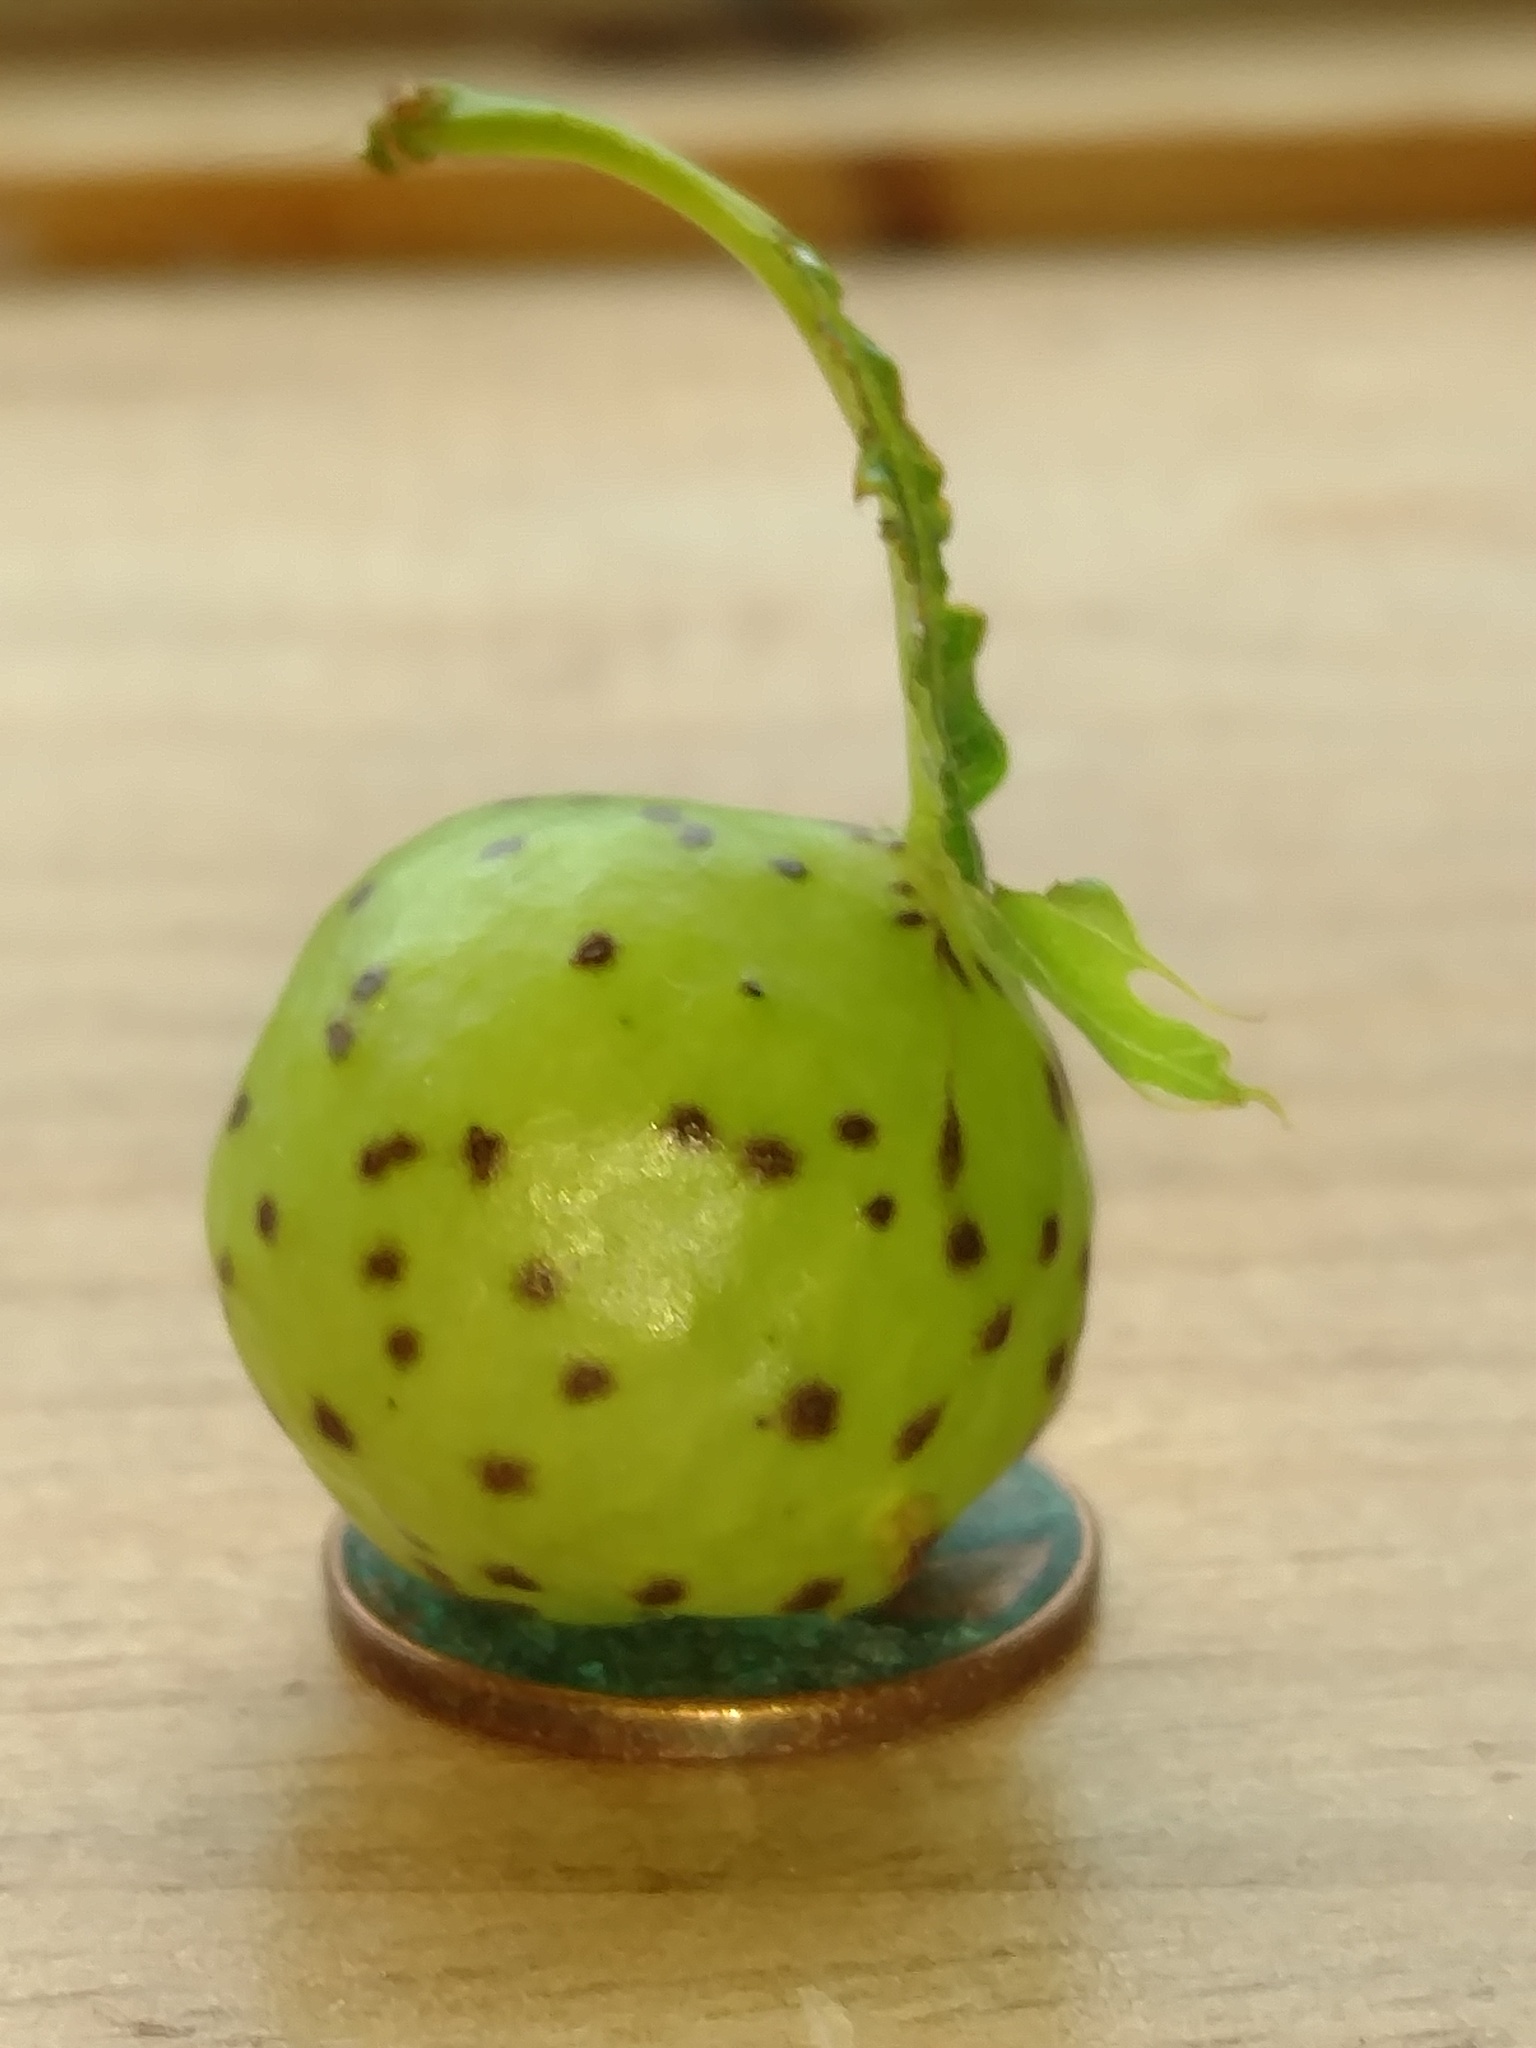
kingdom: Animalia
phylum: Arthropoda
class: Insecta
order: Hymenoptera
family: Cynipidae
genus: Amphibolips
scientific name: Amphibolips
